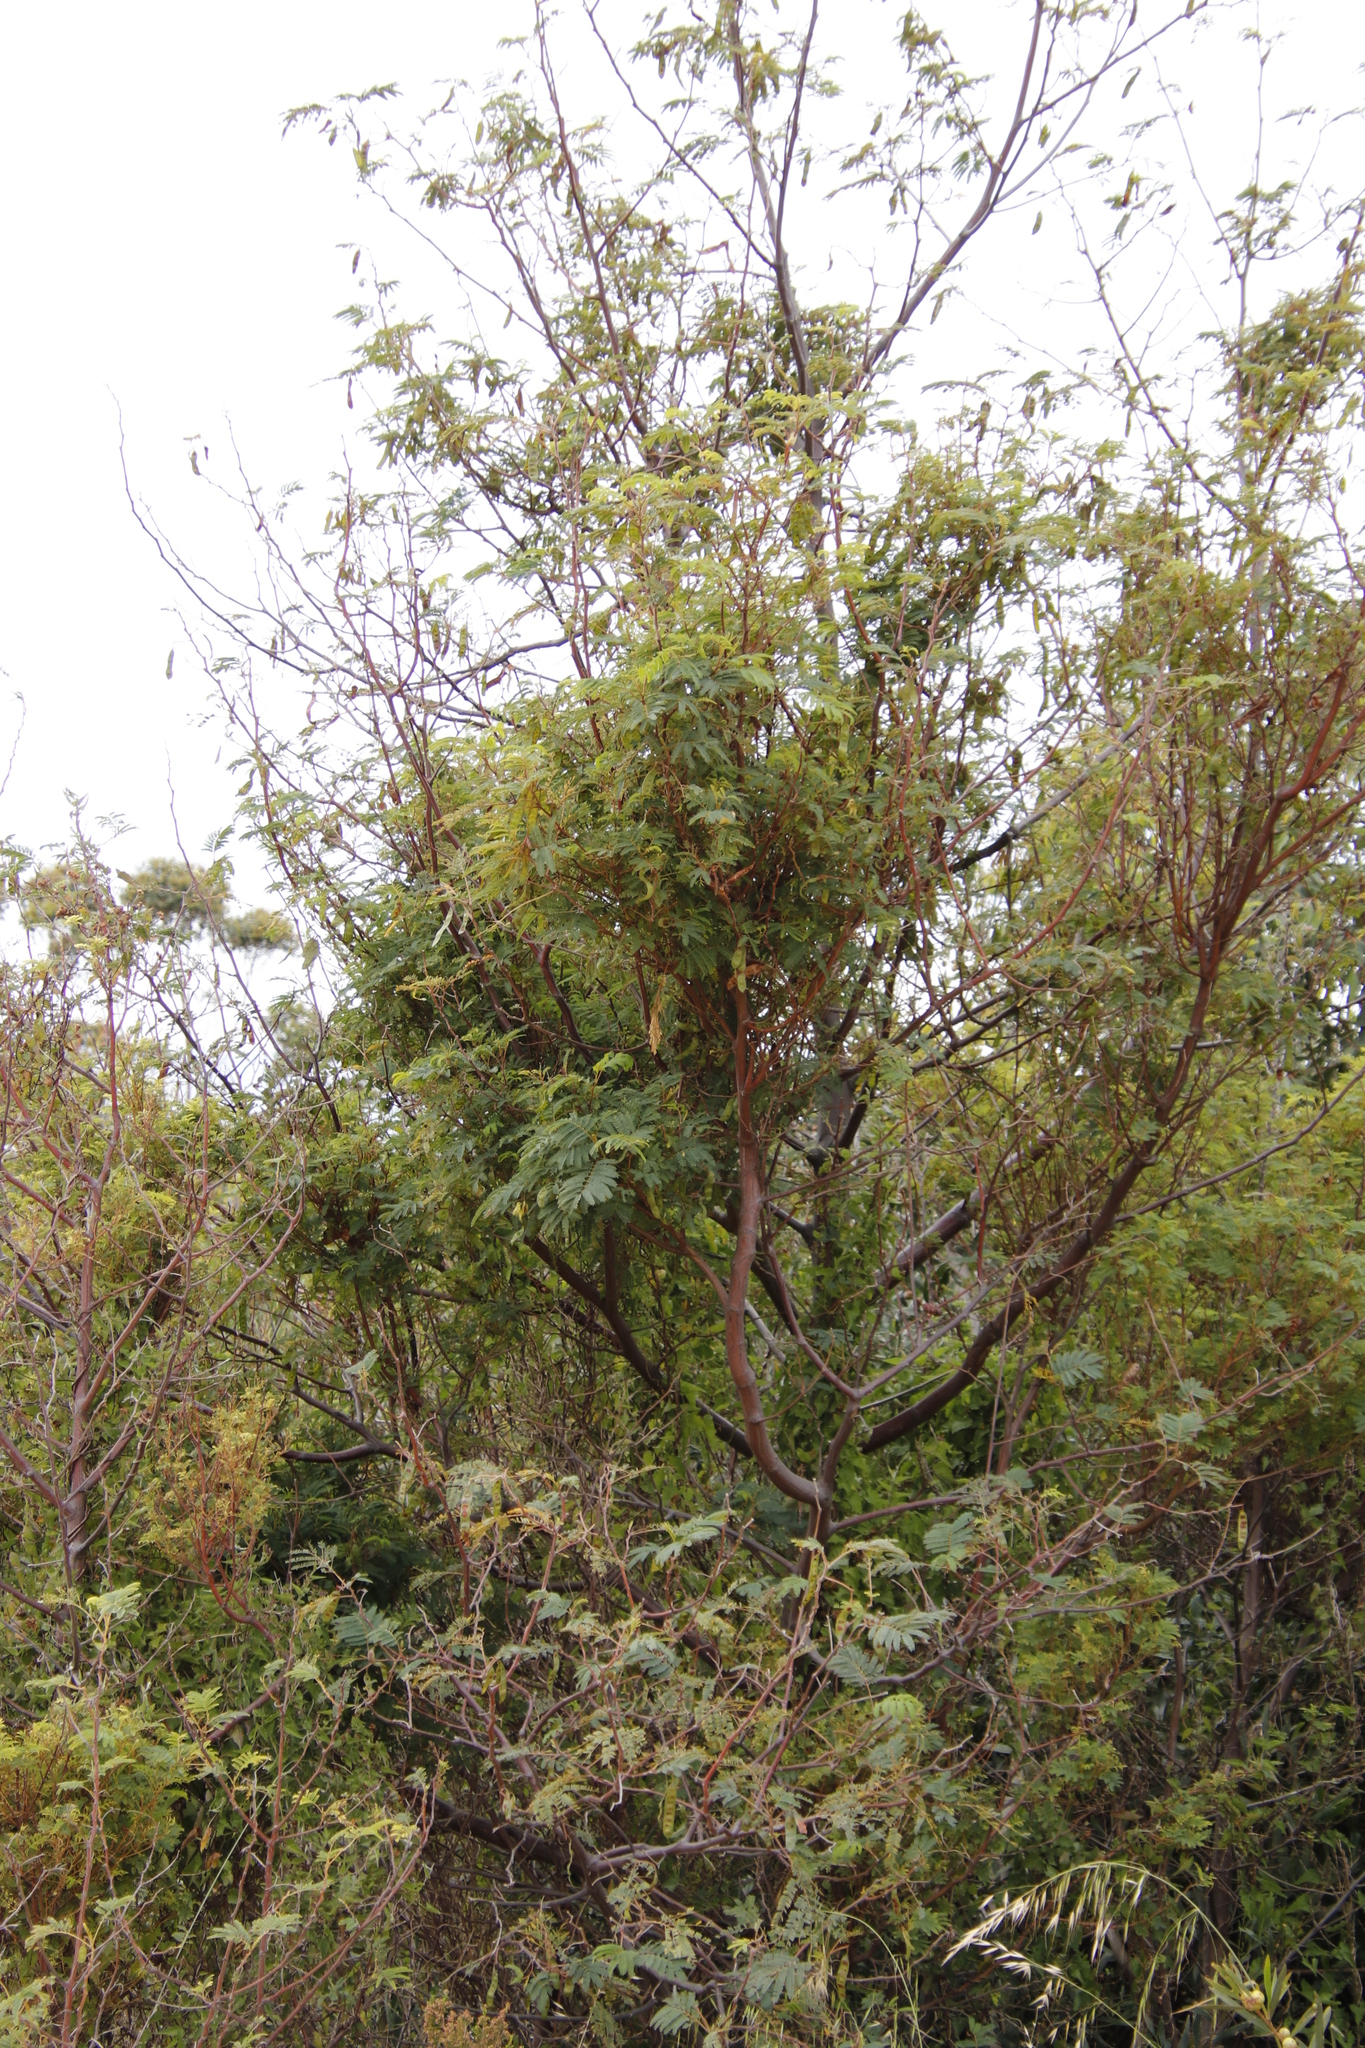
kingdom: Plantae
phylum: Tracheophyta
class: Magnoliopsida
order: Fabales
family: Fabaceae
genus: Paraserianthes
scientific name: Paraserianthes lophantha
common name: Plume albizia
